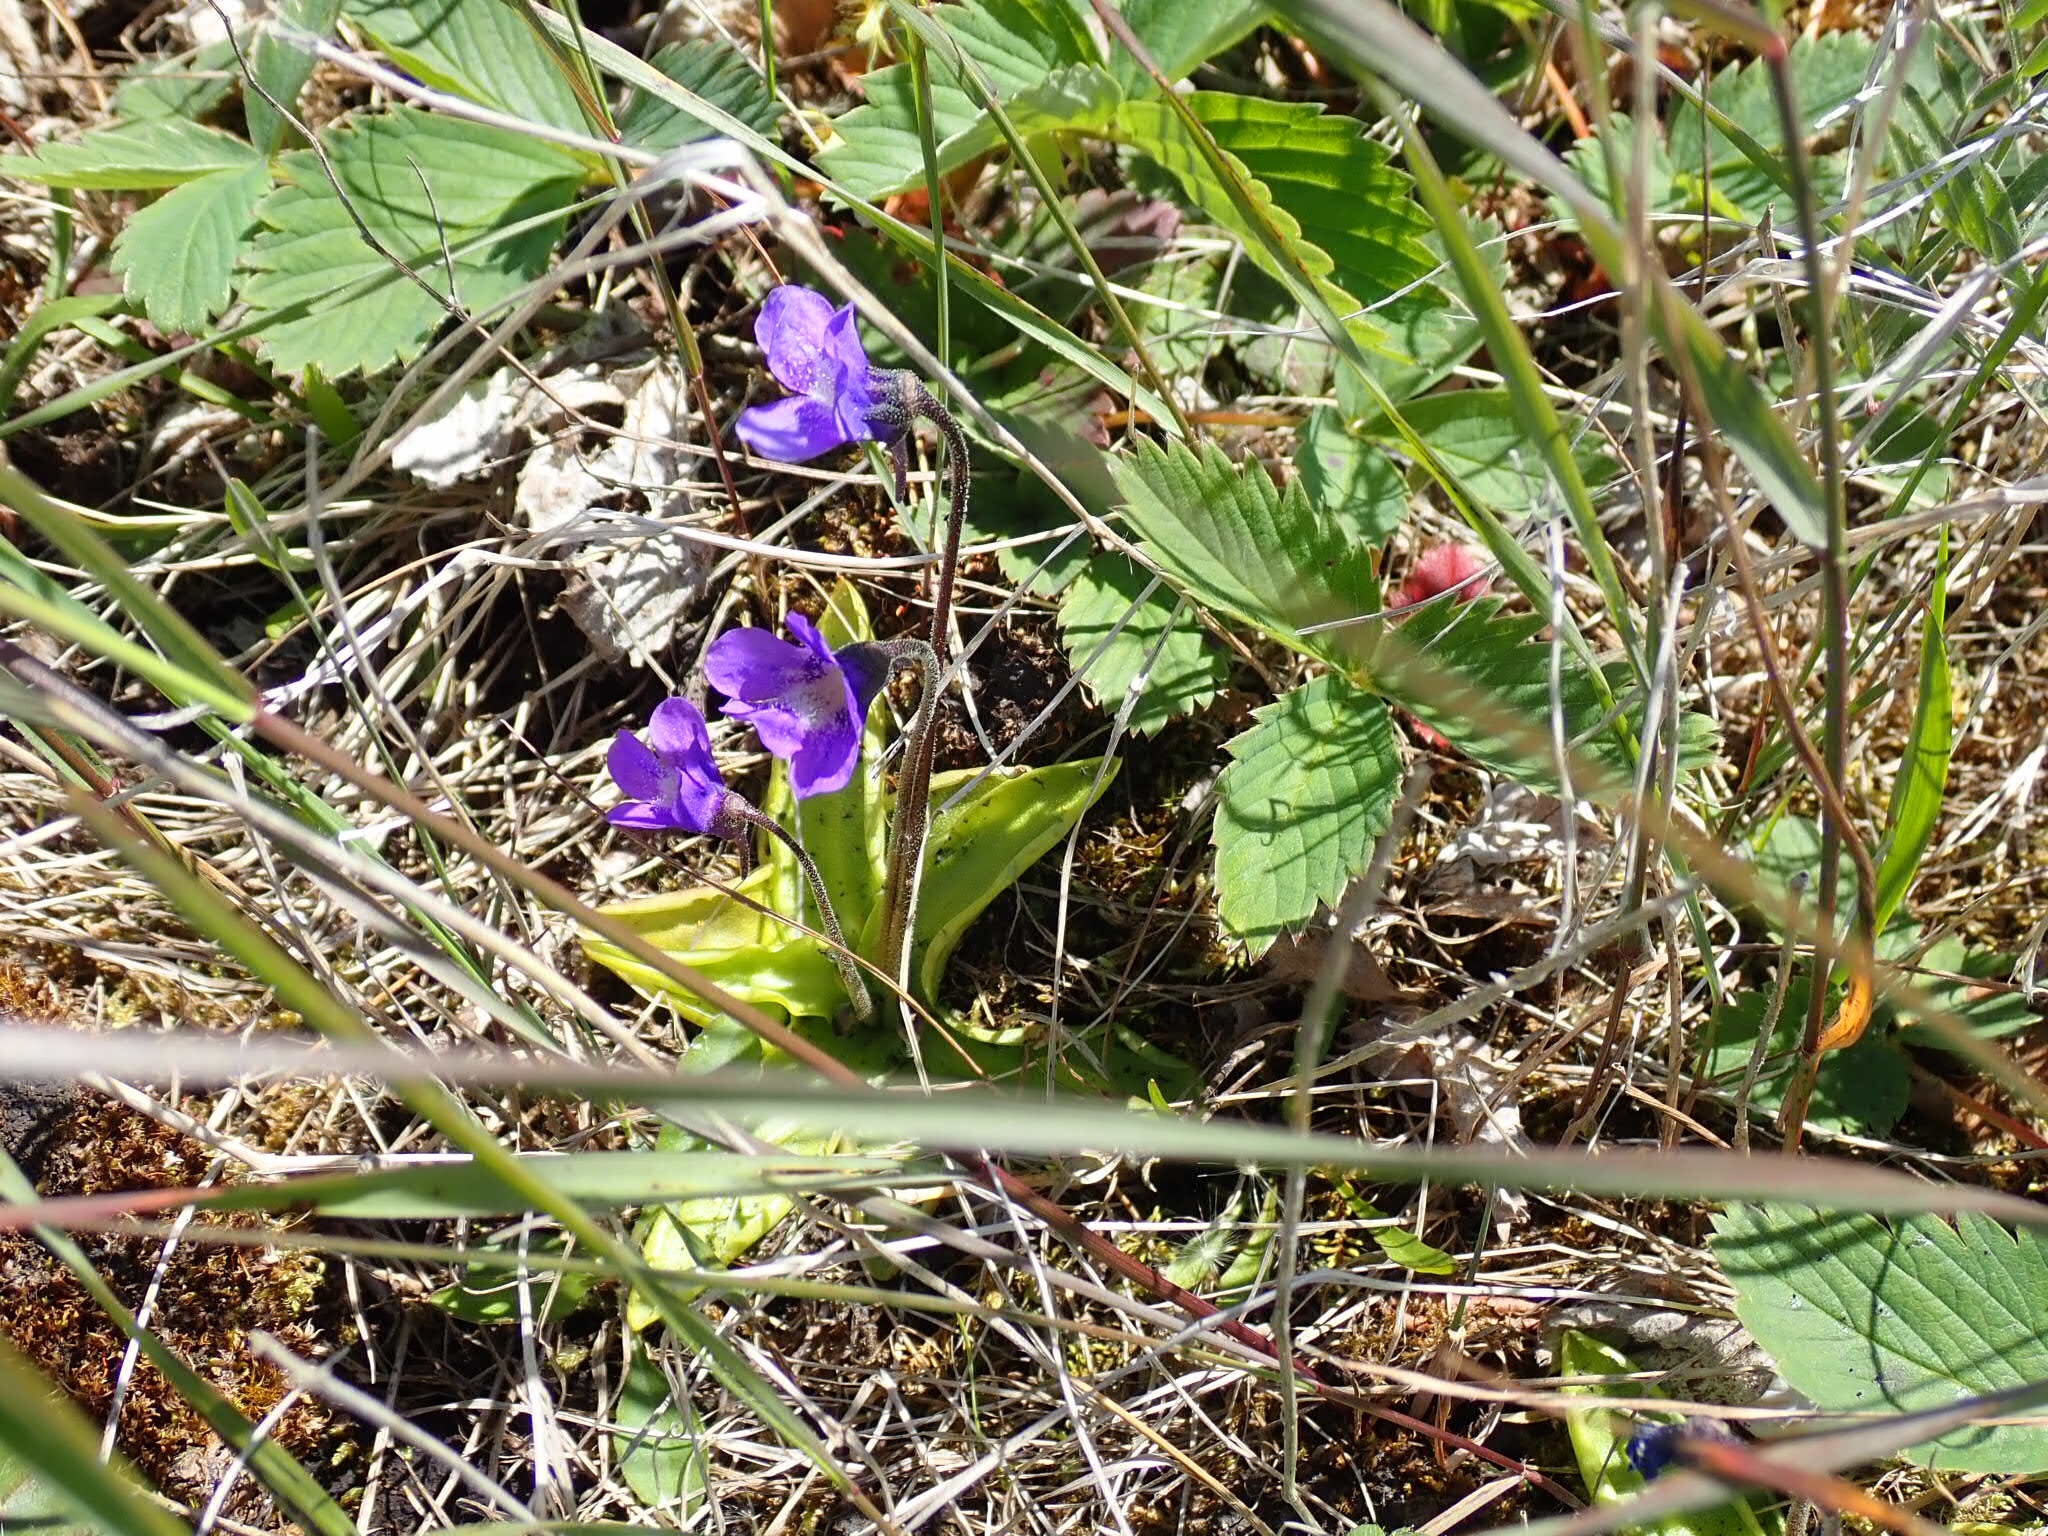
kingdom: Plantae
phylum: Tracheophyta
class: Magnoliopsida
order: Lamiales
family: Lentibulariaceae
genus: Pinguicula
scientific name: Pinguicula vulgaris
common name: Common butterwort
